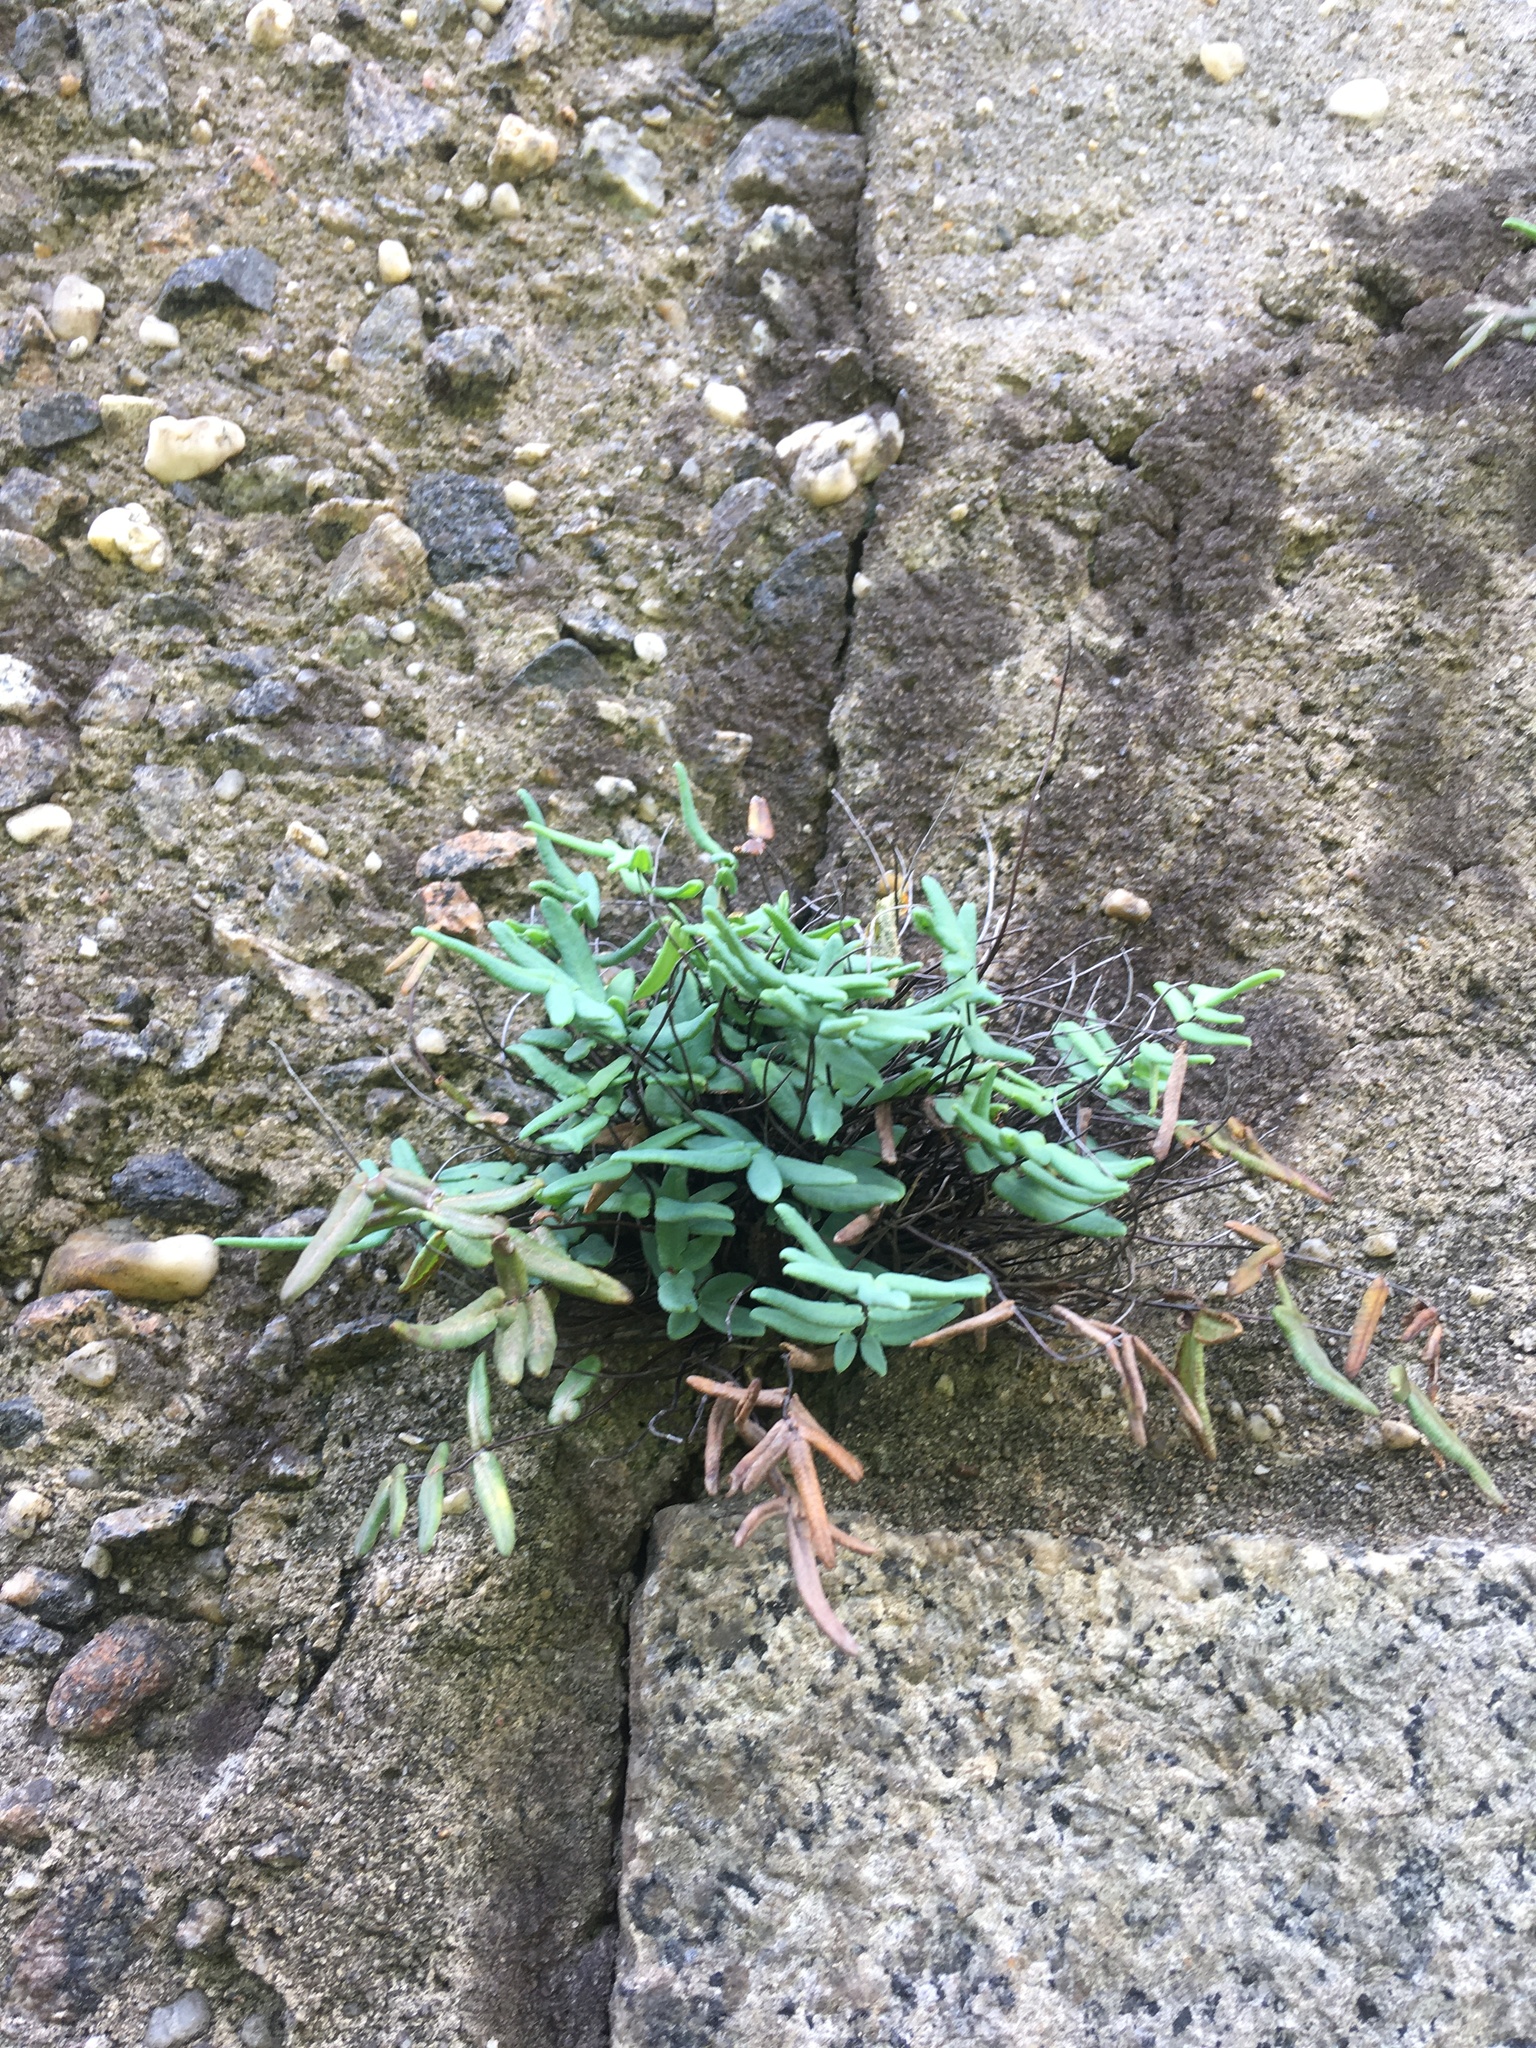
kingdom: Plantae
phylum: Tracheophyta
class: Polypodiopsida
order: Polypodiales
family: Pteridaceae
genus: Pellaea
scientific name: Pellaea glabella
